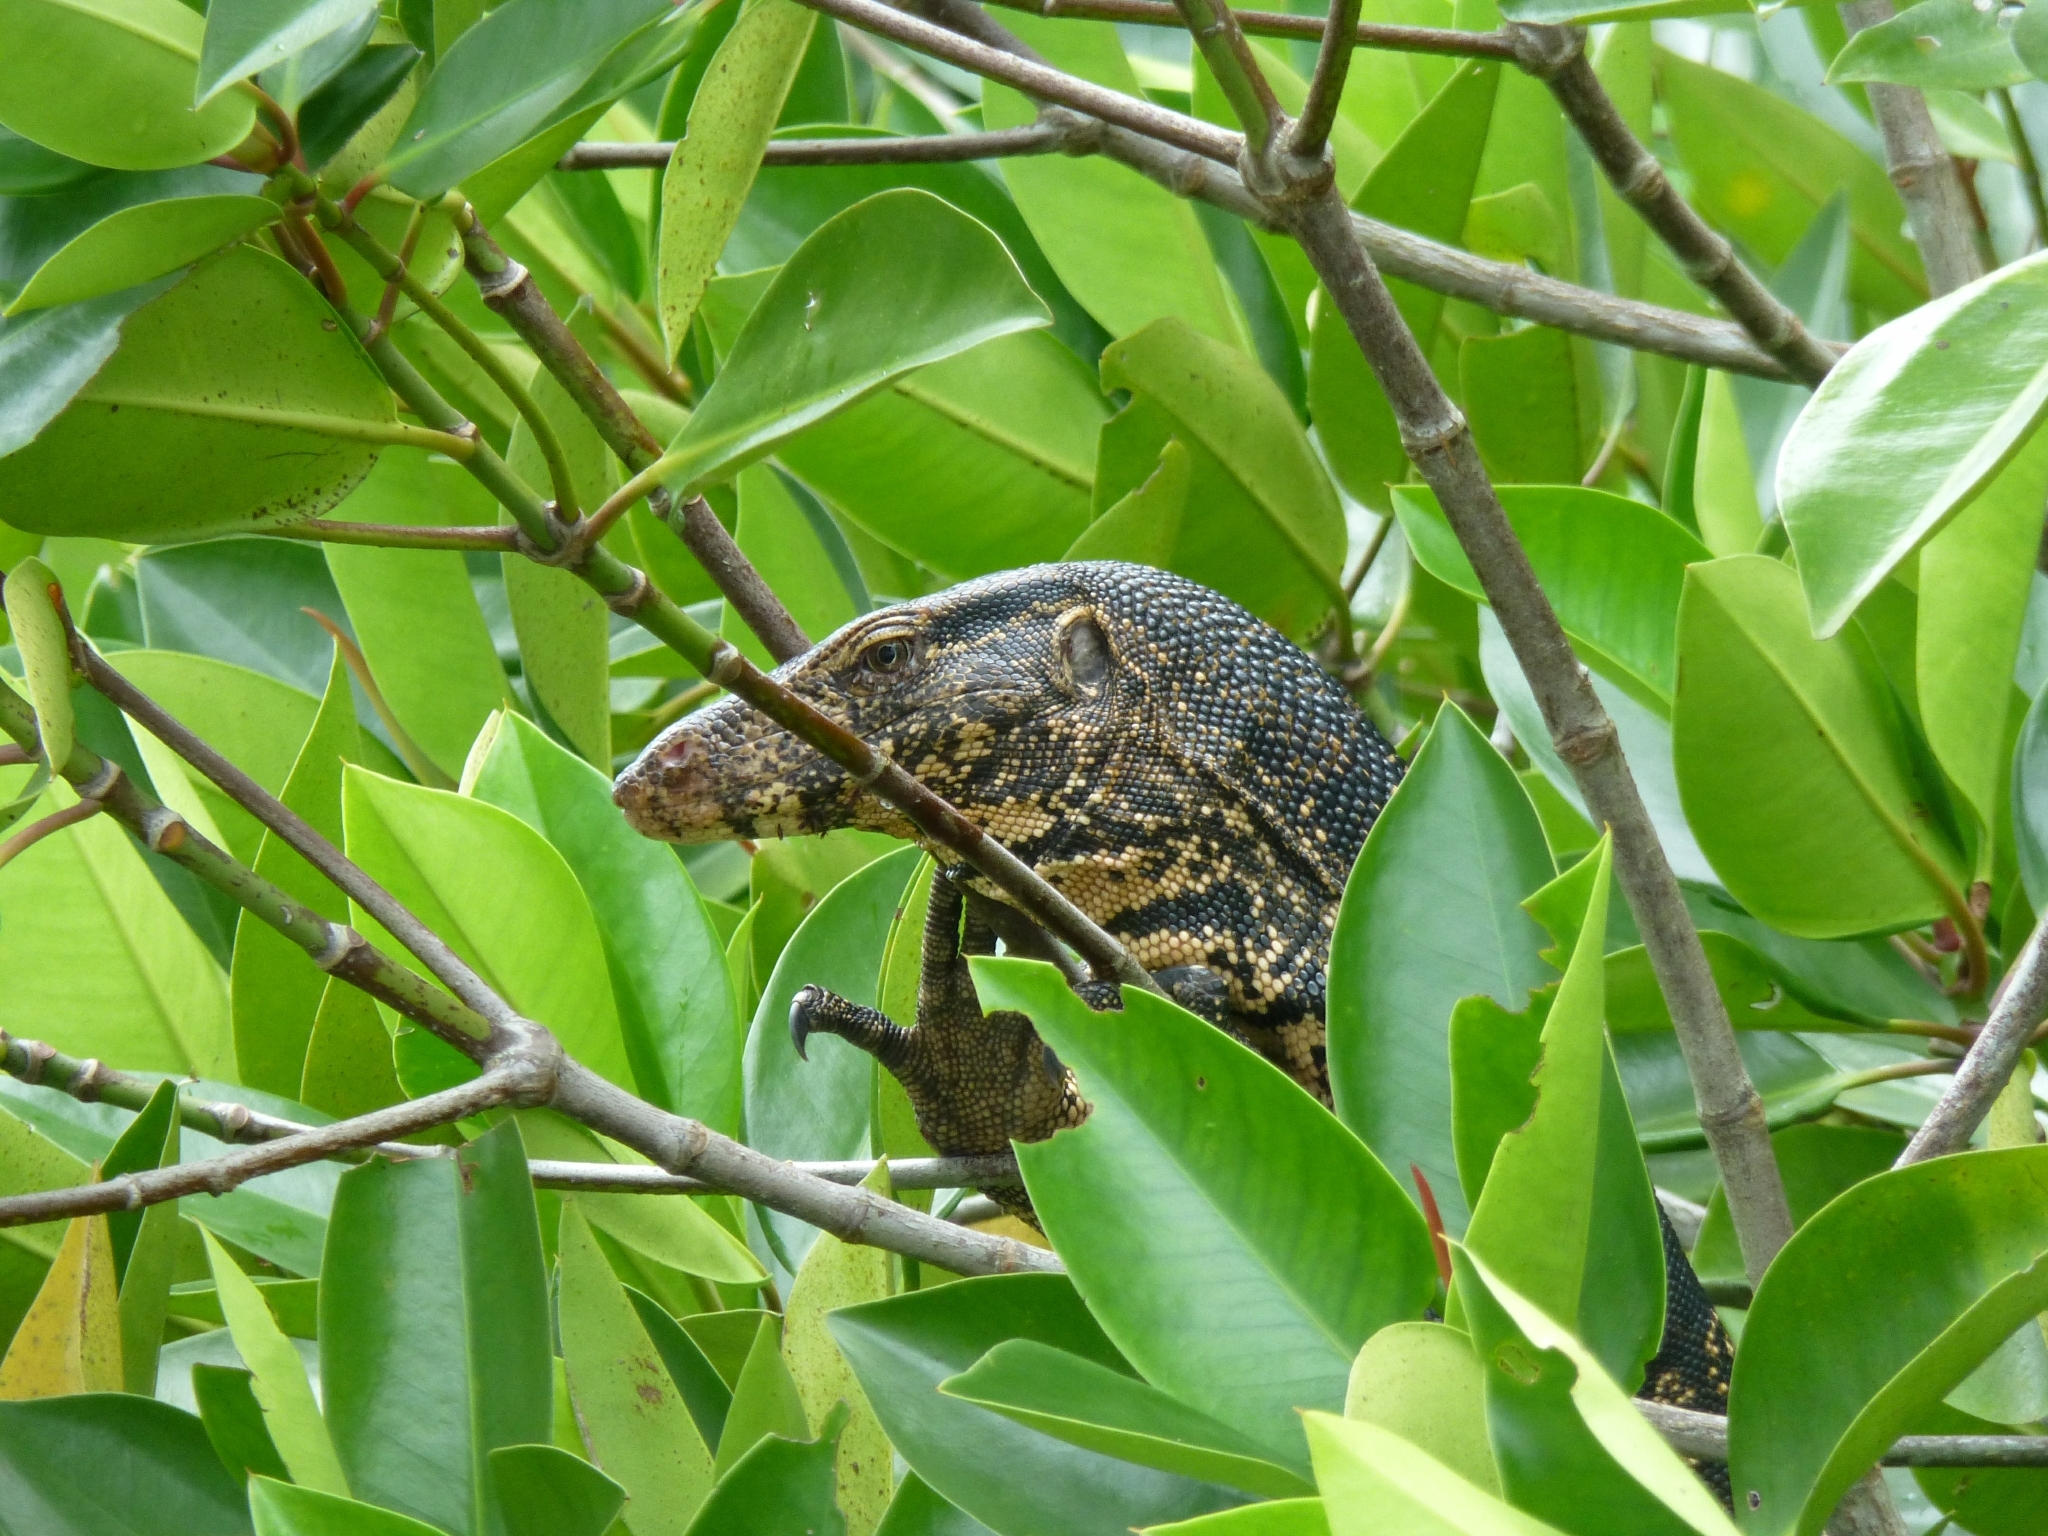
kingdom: Animalia
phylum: Chordata
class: Squamata
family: Varanidae
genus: Varanus
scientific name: Varanus salvator
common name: Common water monitor
